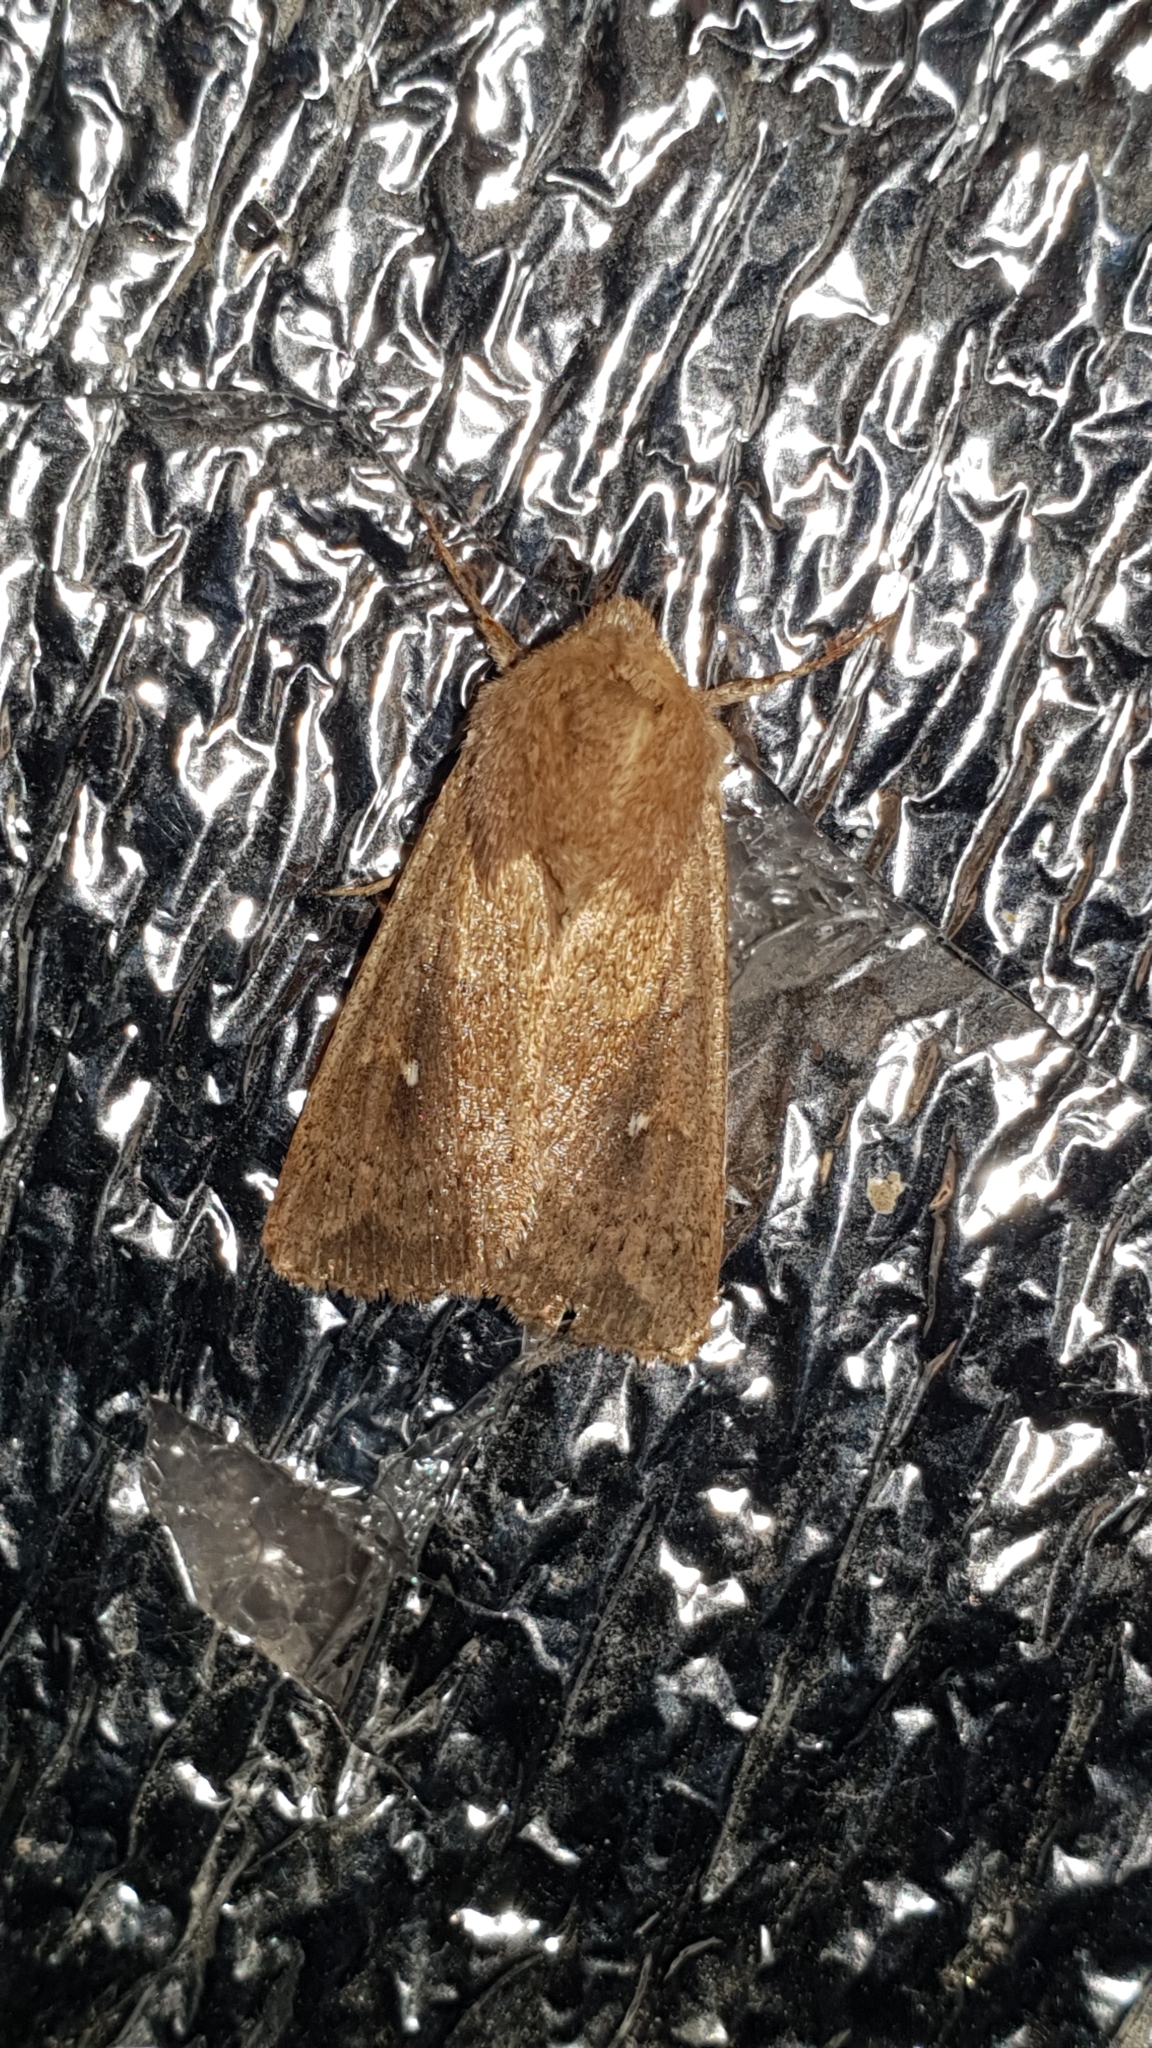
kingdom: Animalia
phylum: Arthropoda
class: Insecta
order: Lepidoptera
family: Noctuidae
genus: Mythimna
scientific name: Mythimna albipuncta
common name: White-point
